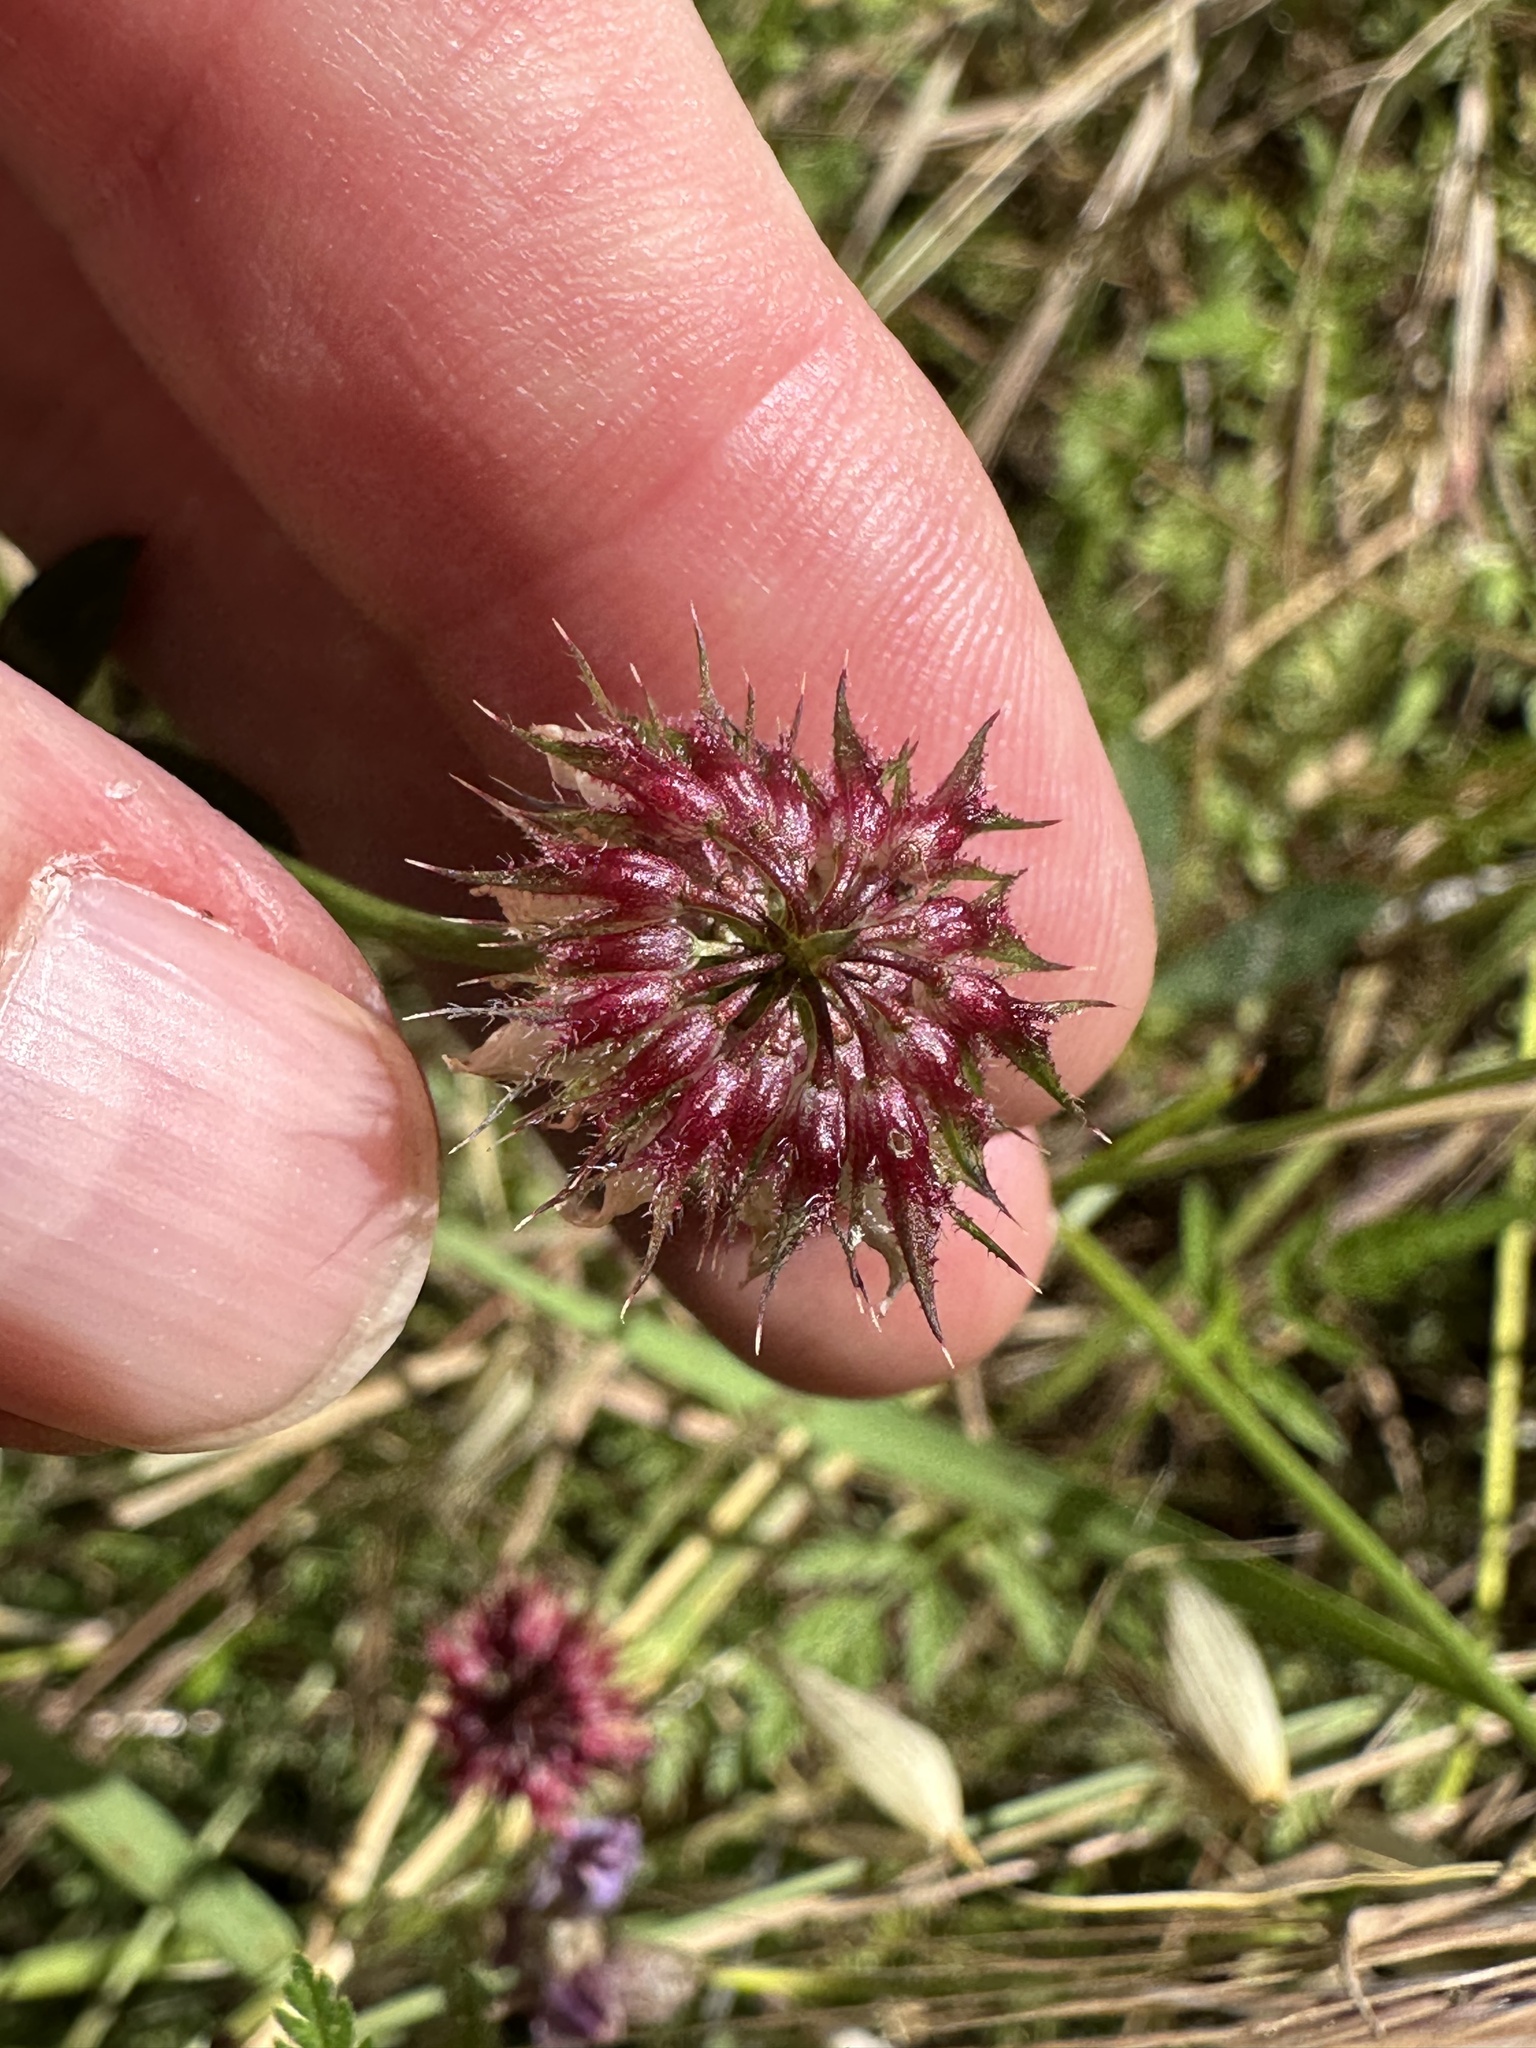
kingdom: Plantae
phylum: Tracheophyta
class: Magnoliopsida
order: Fabales
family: Fabaceae
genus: Trifolium
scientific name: Trifolium ciliolatum
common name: Foothill clover
